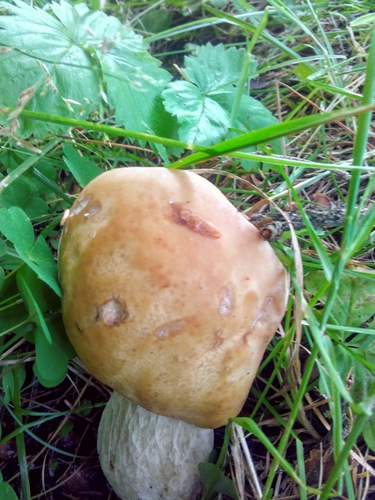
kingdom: Fungi
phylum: Basidiomycota
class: Agaricomycetes
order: Boletales
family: Boletaceae
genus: Boletus
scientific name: Boletus edulis
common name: Cep
